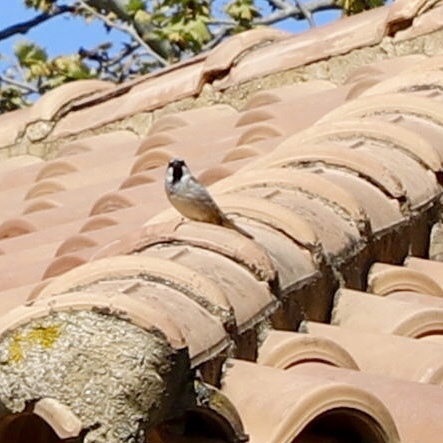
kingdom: Animalia
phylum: Chordata
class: Aves
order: Passeriformes
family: Passeridae
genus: Passer
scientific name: Passer domesticus
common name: House sparrow
